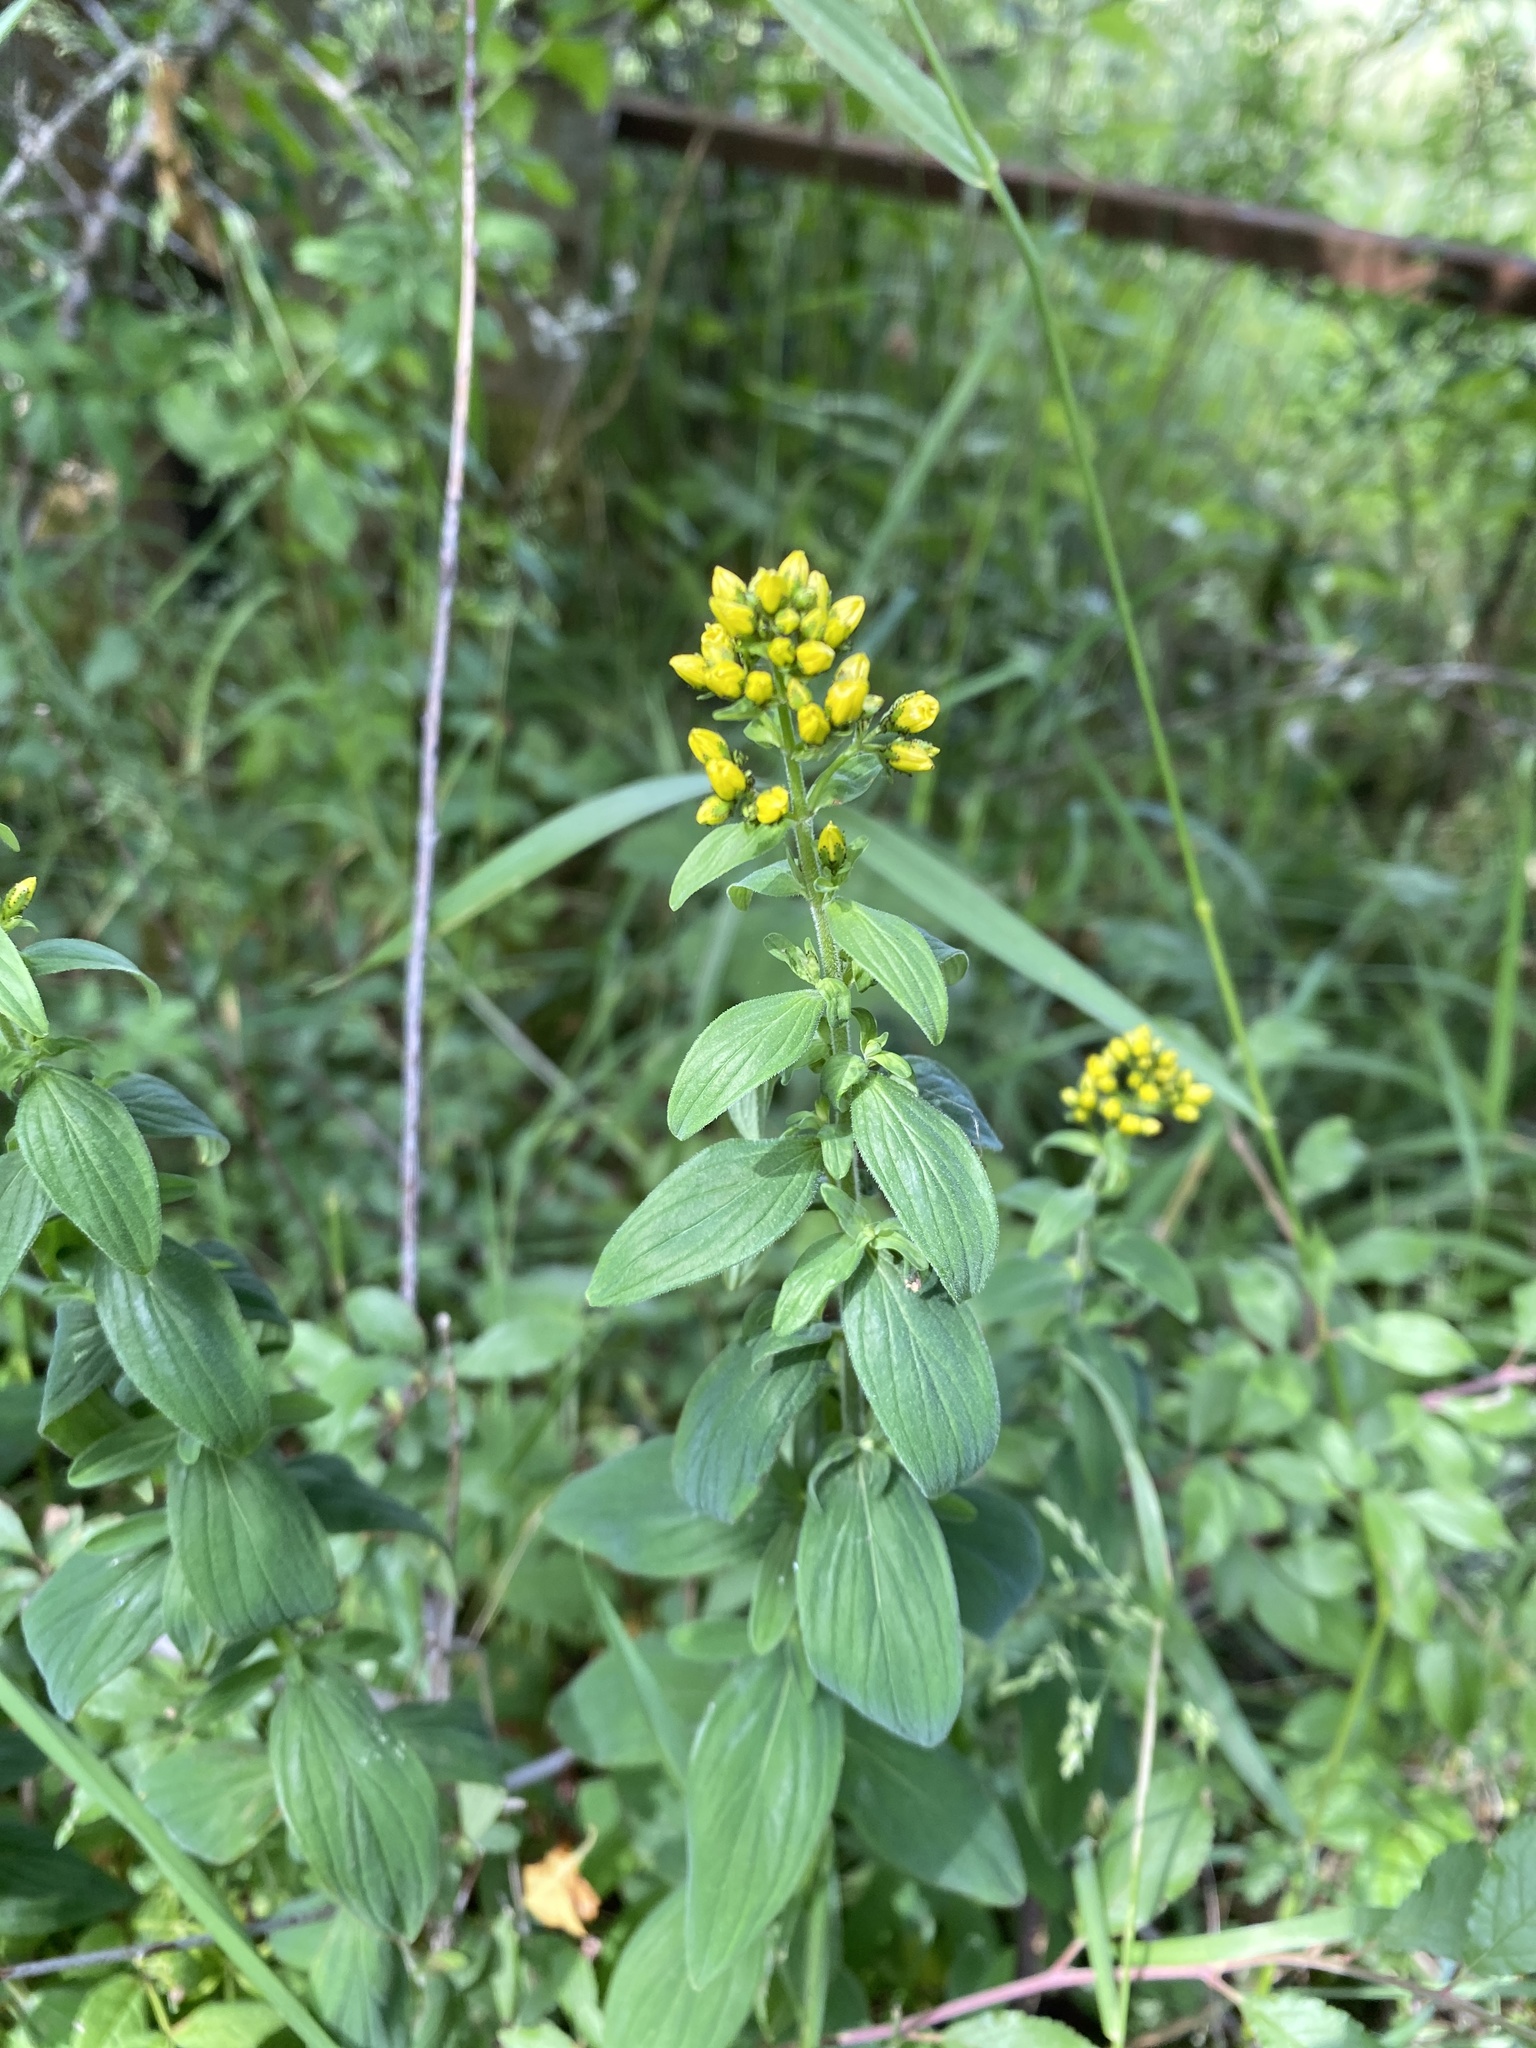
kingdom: Plantae
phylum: Tracheophyta
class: Magnoliopsida
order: Malpighiales
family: Hypericaceae
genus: Hypericum
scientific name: Hypericum hirsutum
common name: Hairy st. john's-wort
